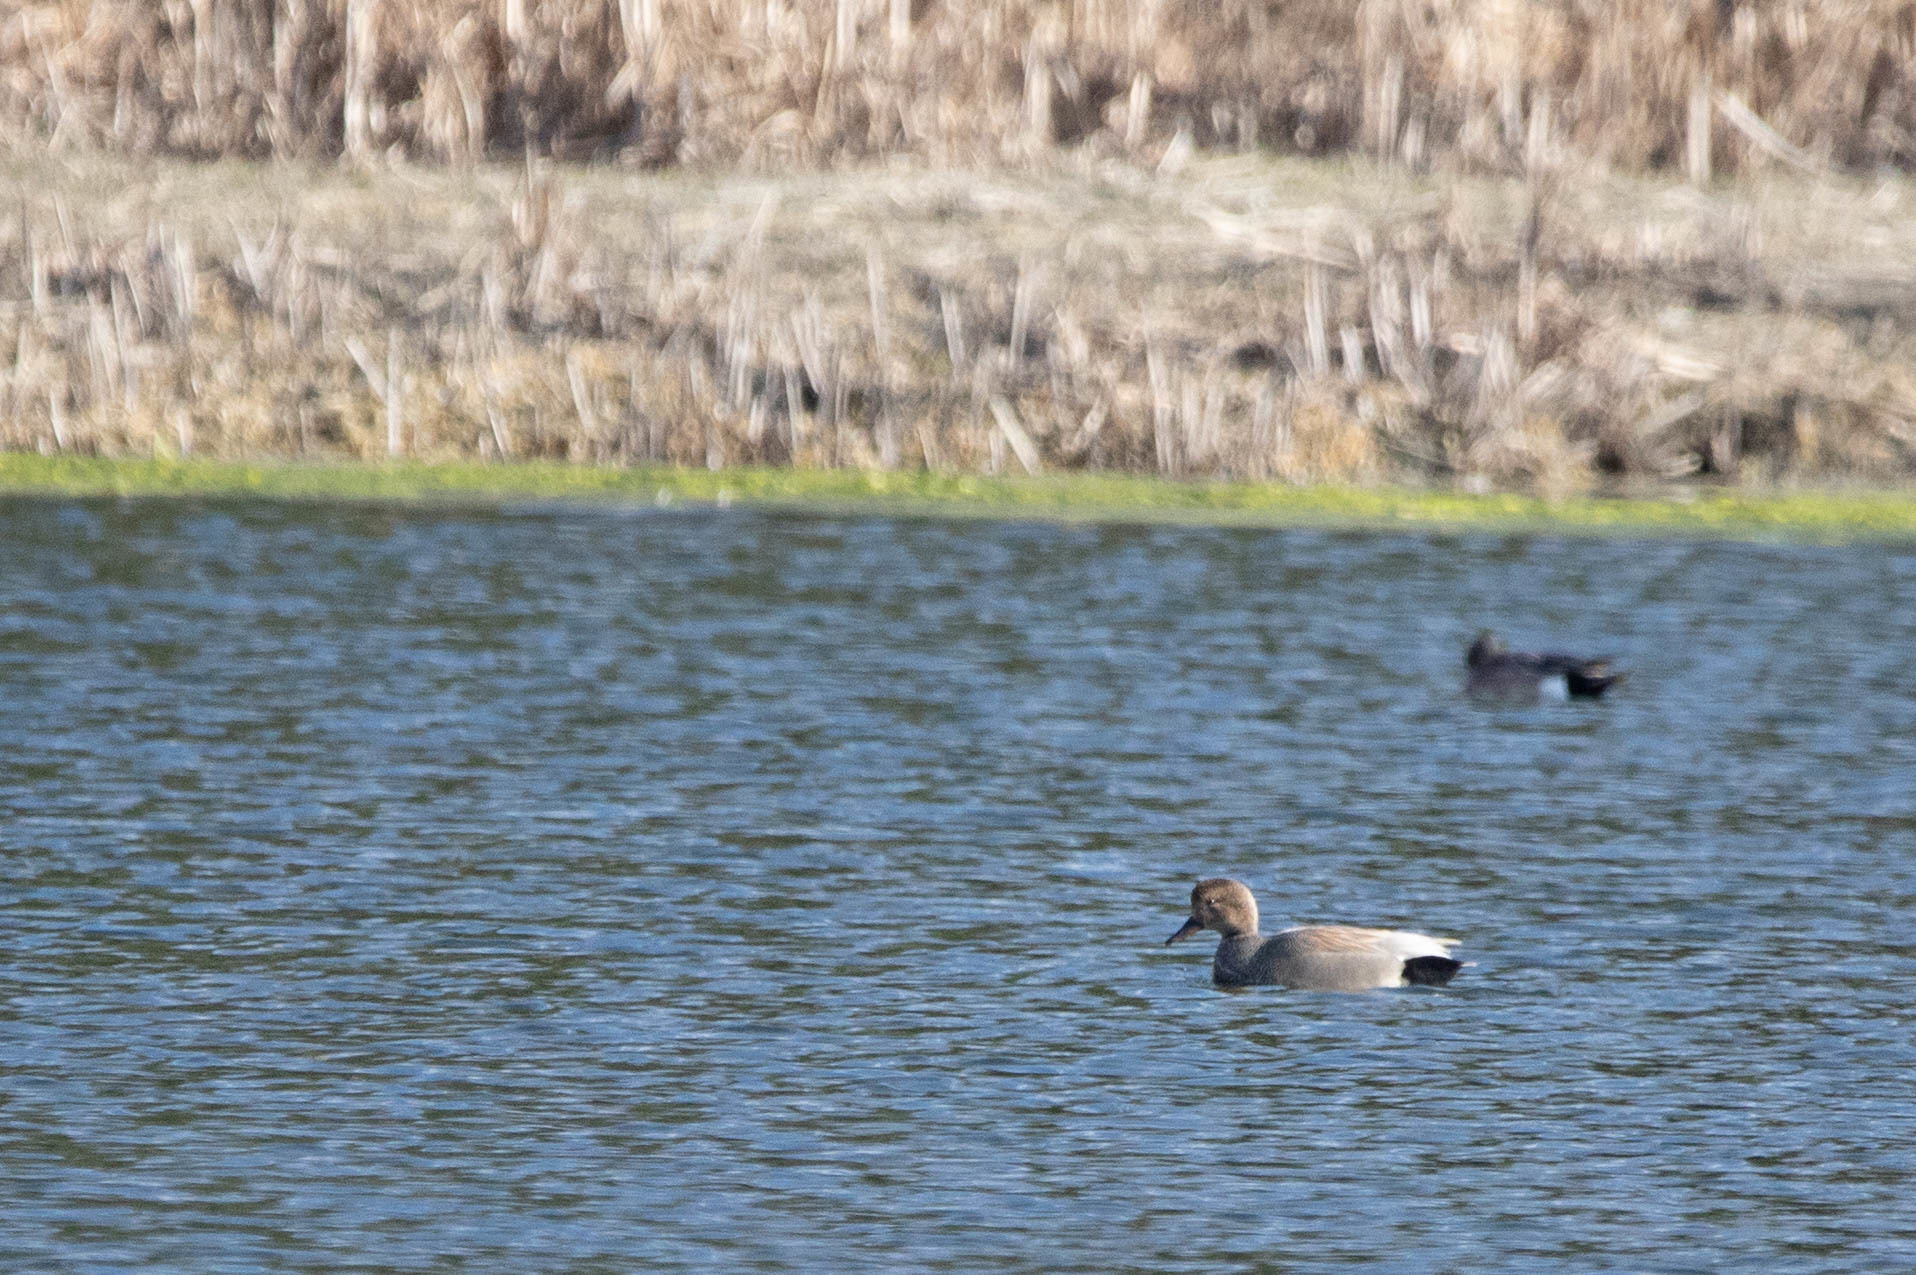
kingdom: Animalia
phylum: Chordata
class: Aves
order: Anseriformes
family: Anatidae
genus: Mareca
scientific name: Mareca strepera
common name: Gadwall
